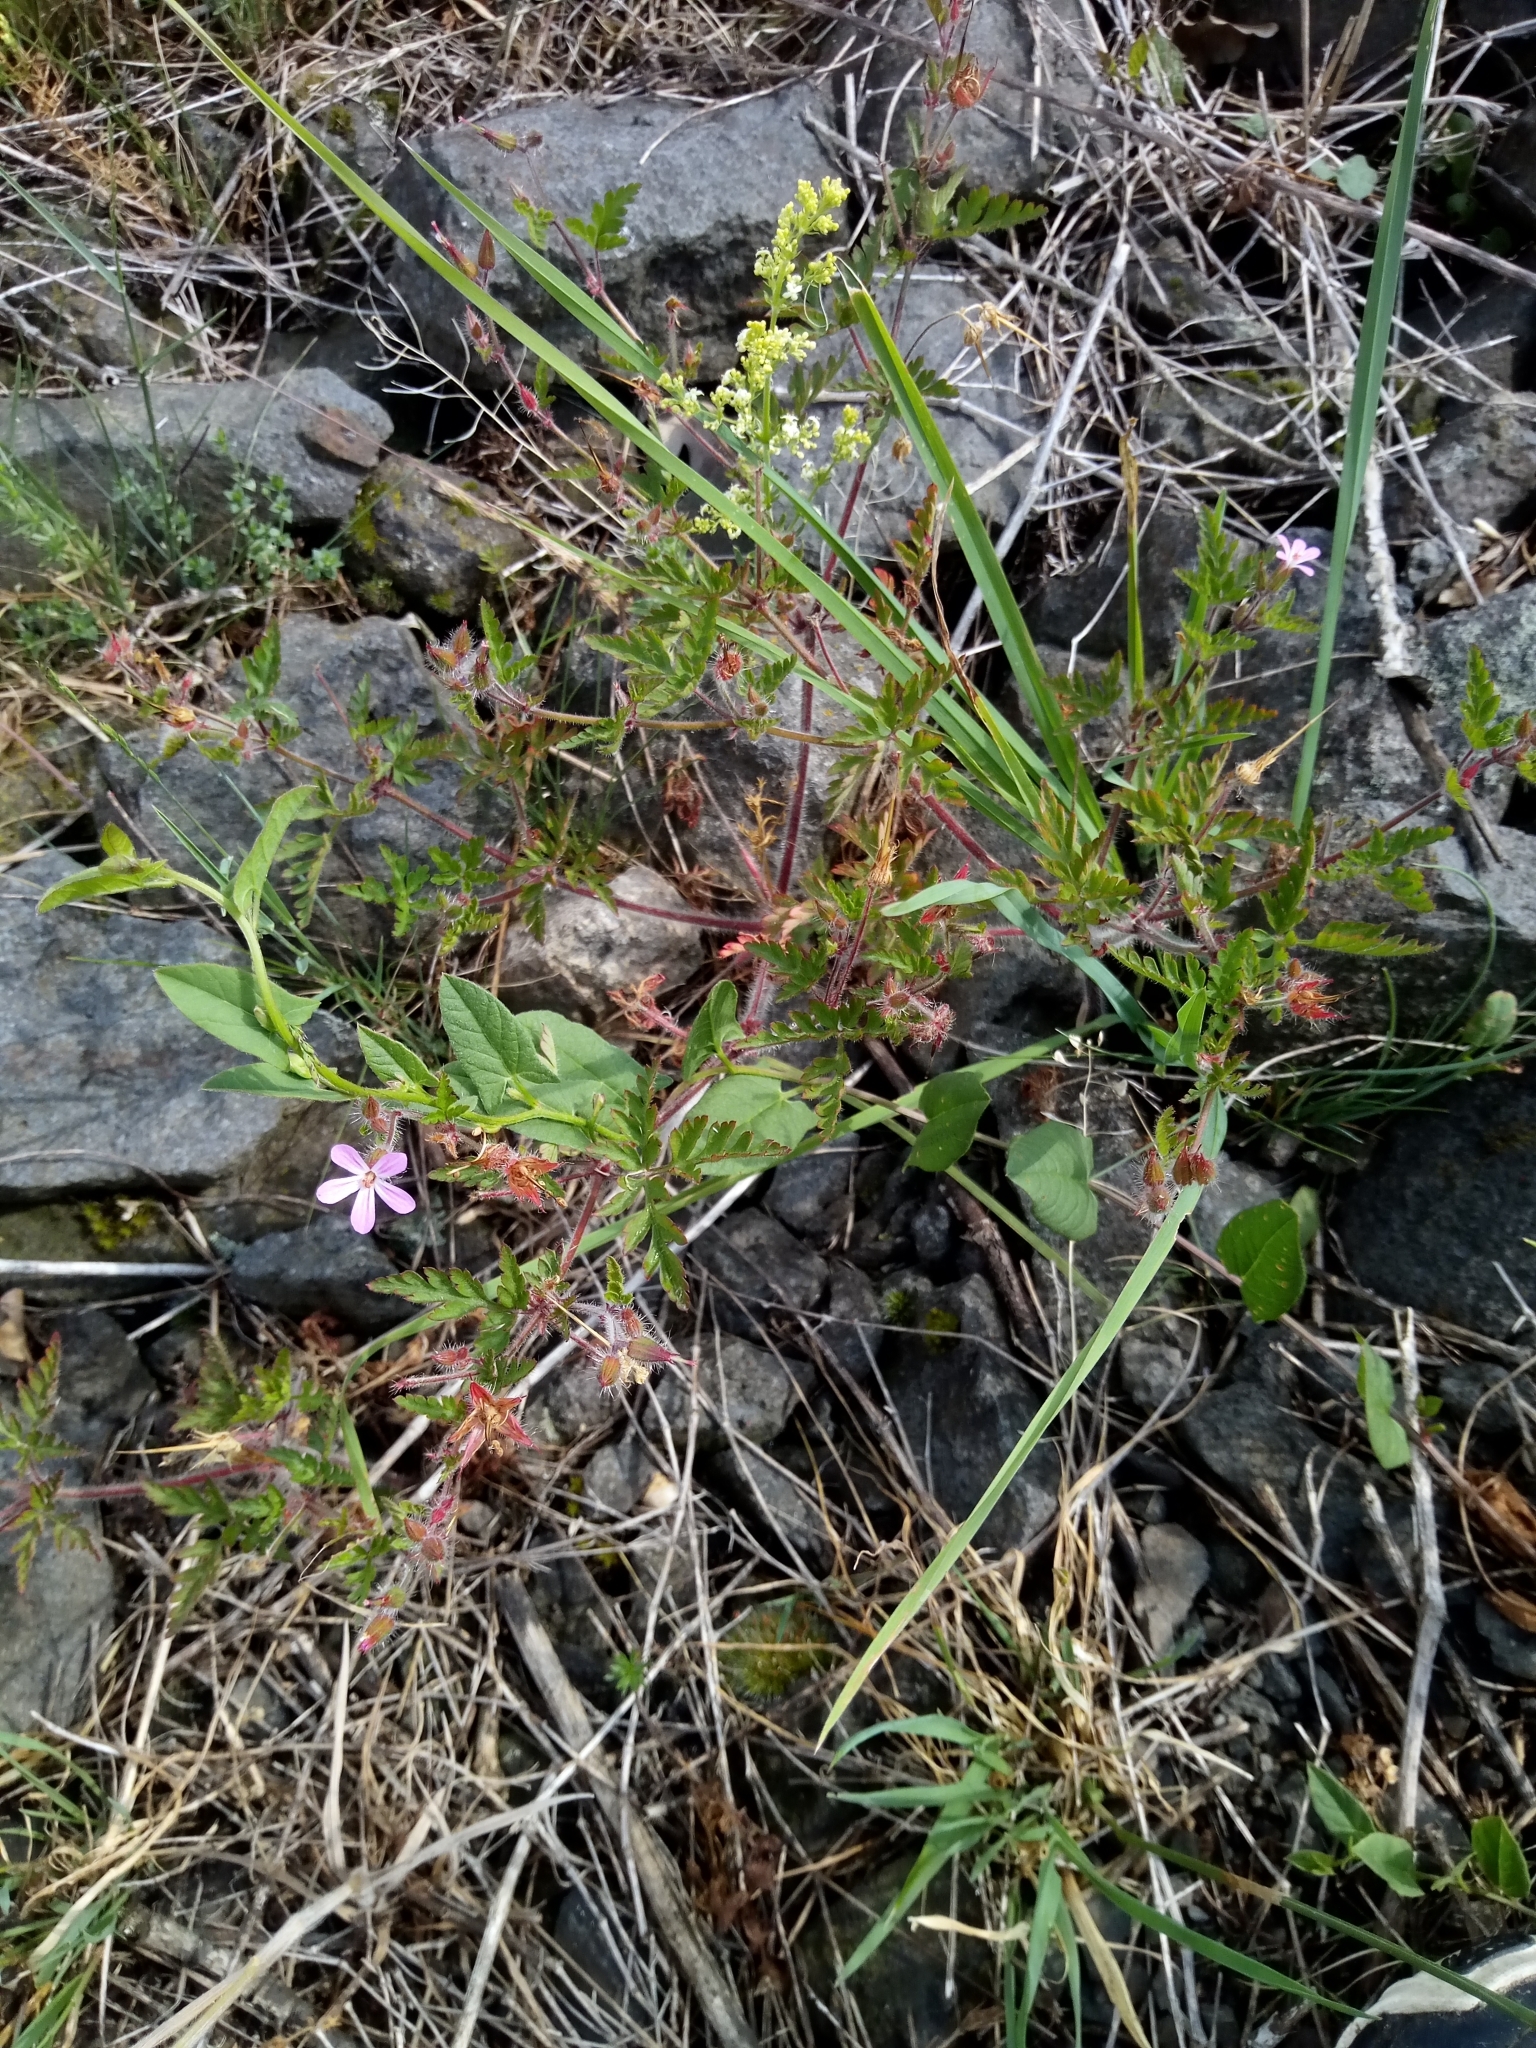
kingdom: Plantae
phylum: Tracheophyta
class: Magnoliopsida
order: Geraniales
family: Geraniaceae
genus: Geranium
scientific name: Geranium robertianum
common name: Herb-robert
